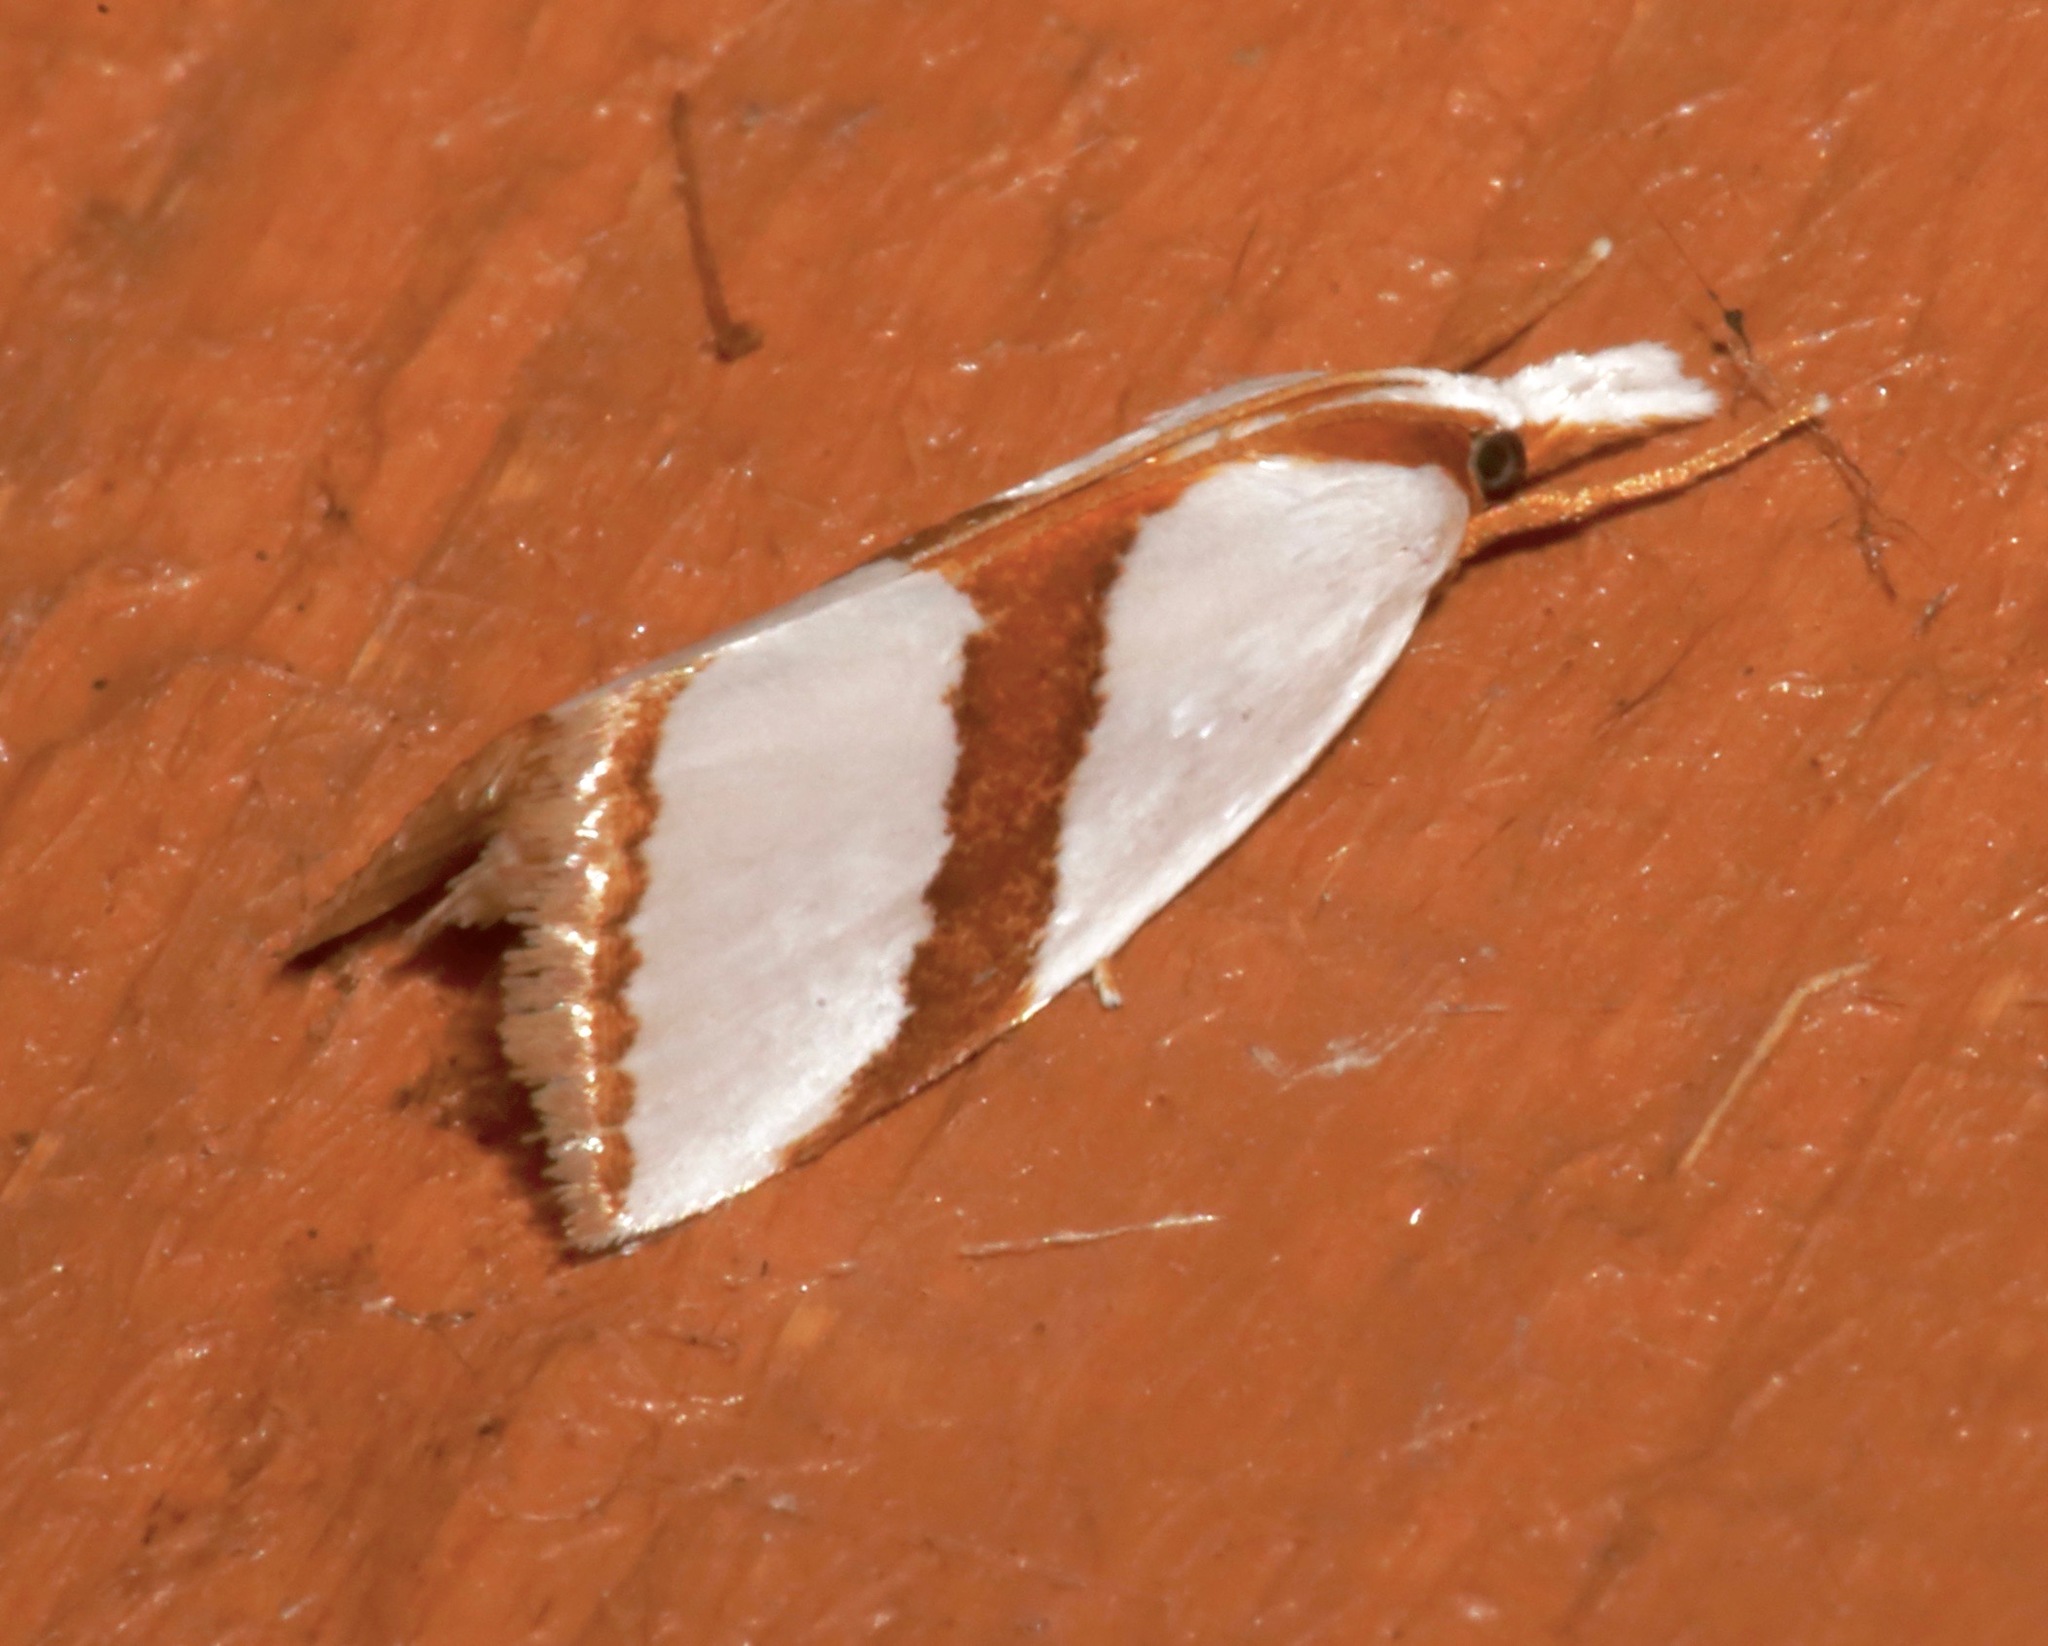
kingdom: Animalia
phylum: Arthropoda
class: Insecta
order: Lepidoptera
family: Crambidae
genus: Vaxi
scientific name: Vaxi critica
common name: Straight-lined vaxi moth
